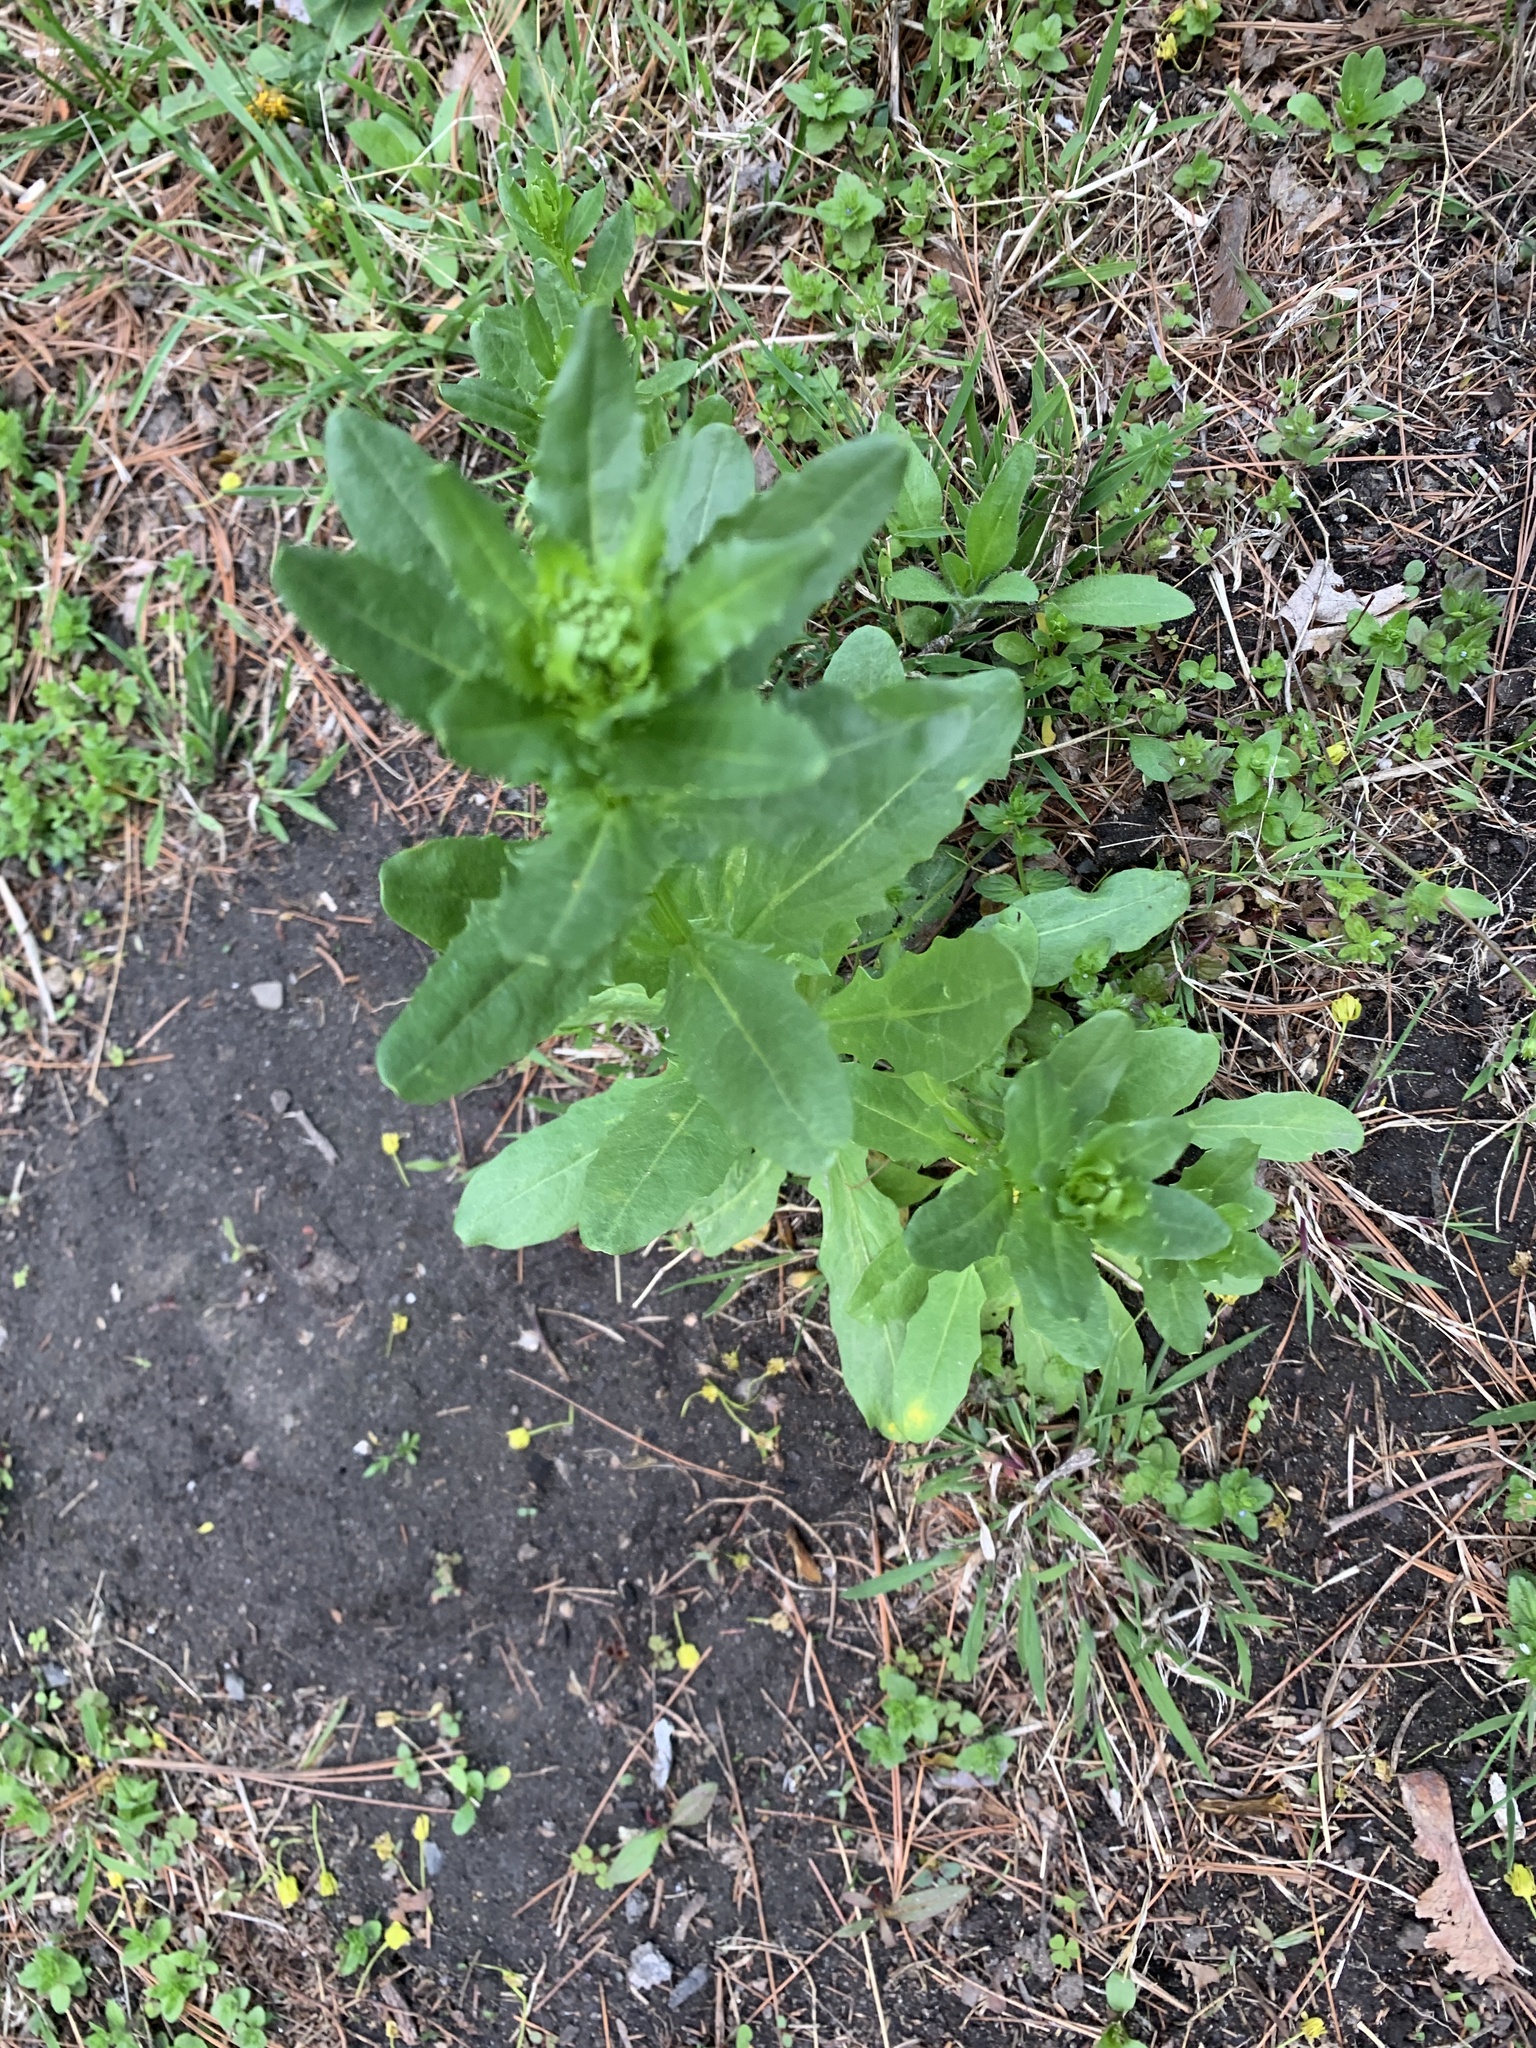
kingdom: Plantae
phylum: Tracheophyta
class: Magnoliopsida
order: Brassicales
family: Brassicaceae
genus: Thlaspi
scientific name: Thlaspi arvense
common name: Field pennycress
